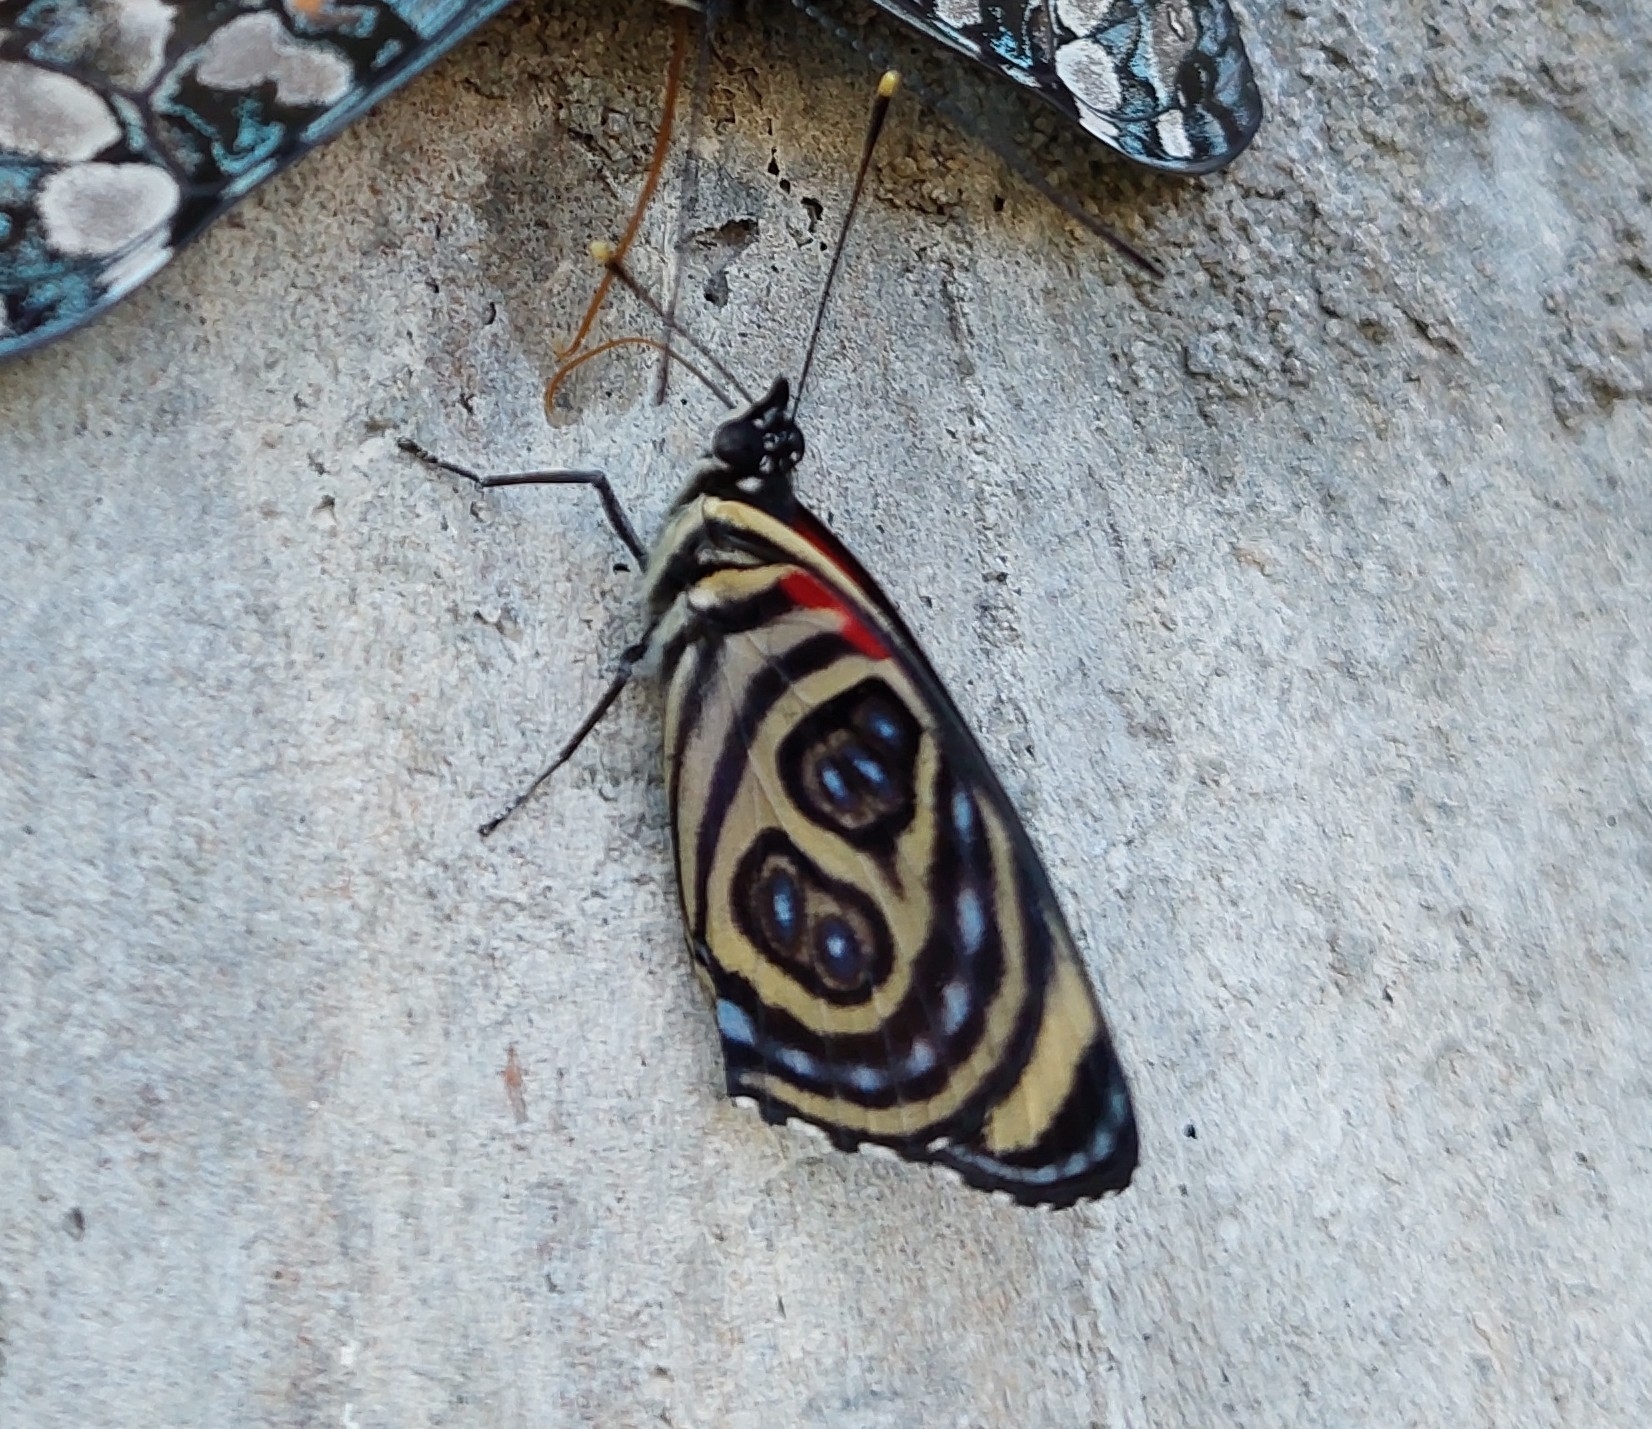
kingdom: Animalia
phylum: Arthropoda
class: Insecta
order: Lepidoptera
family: Nymphalidae
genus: Catagramma
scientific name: Catagramma pygas
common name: Godart's numberwing
